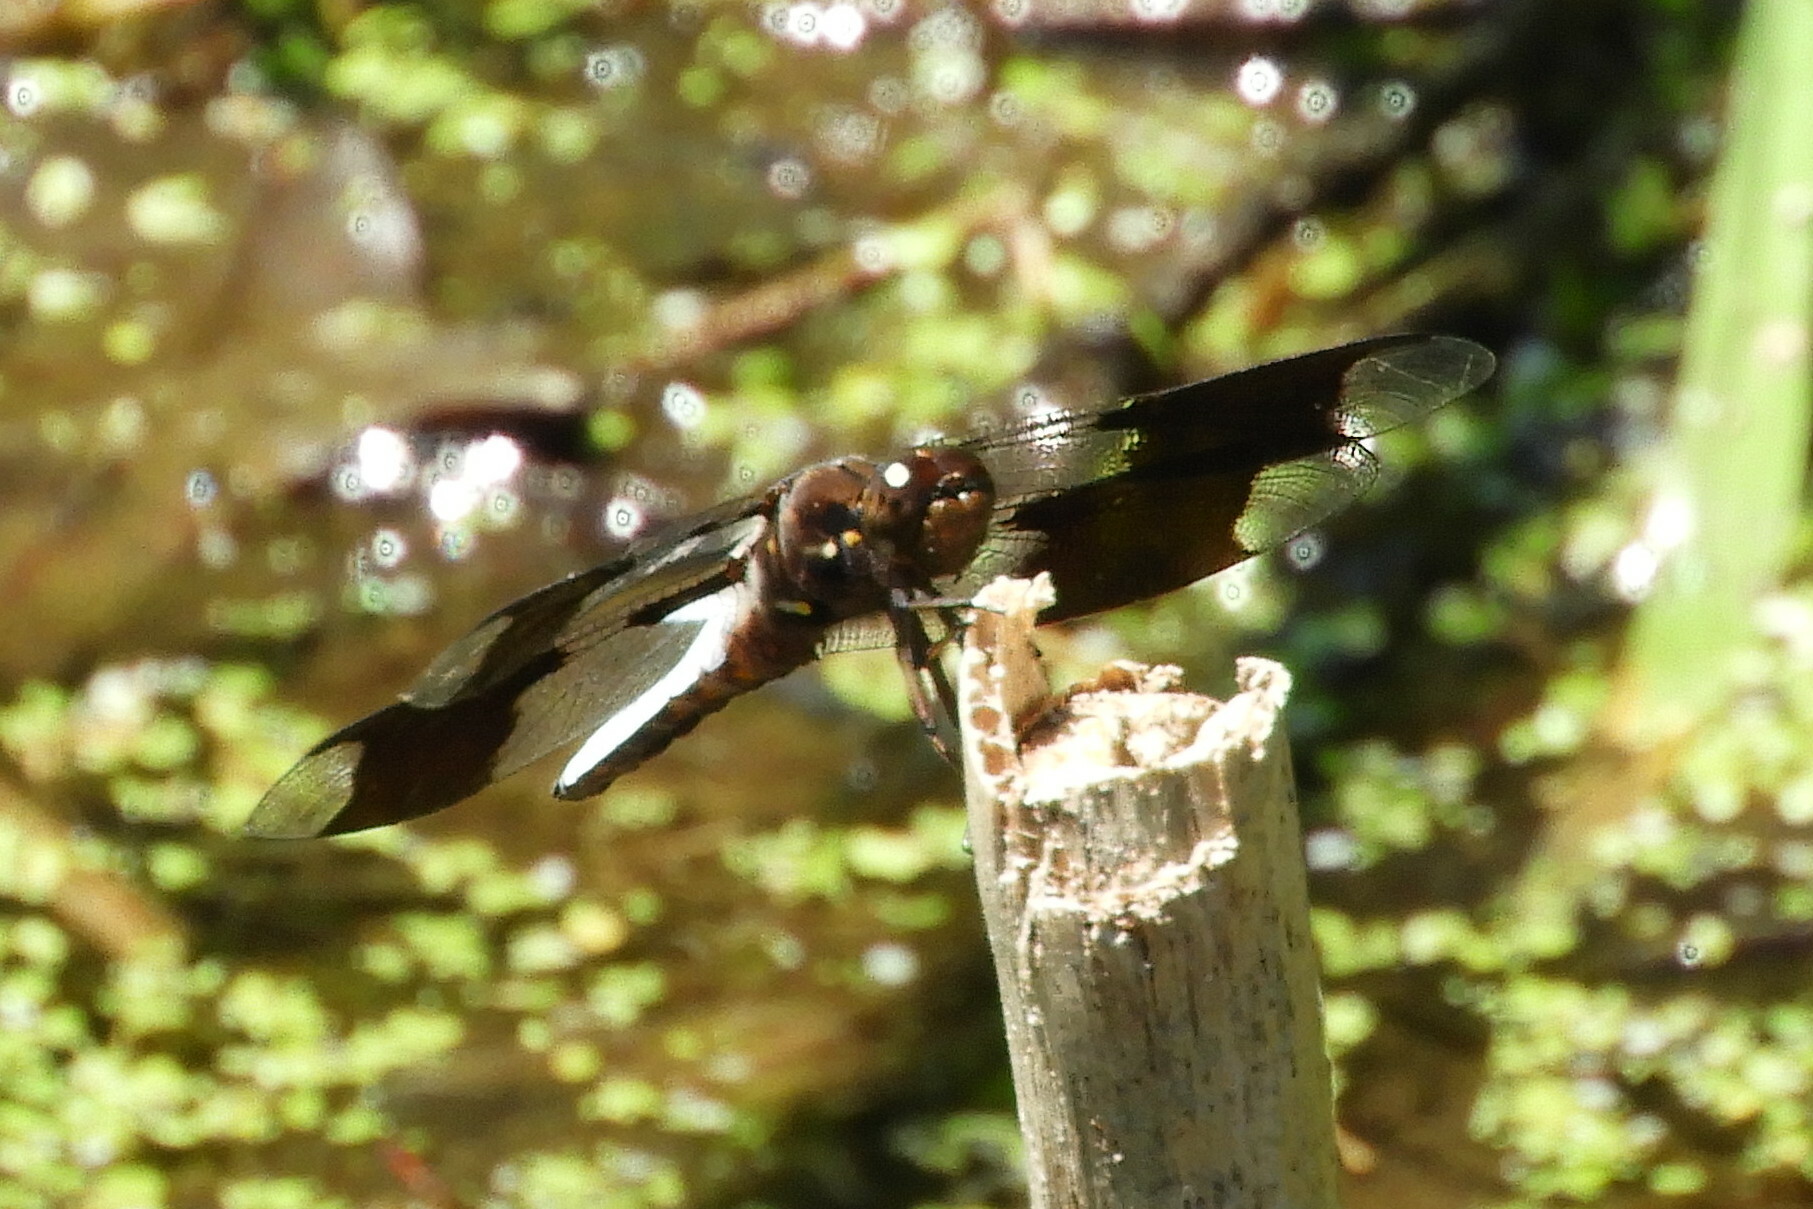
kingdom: Animalia
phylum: Arthropoda
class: Insecta
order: Odonata
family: Libellulidae
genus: Plathemis
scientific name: Plathemis lydia
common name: Common whitetail
